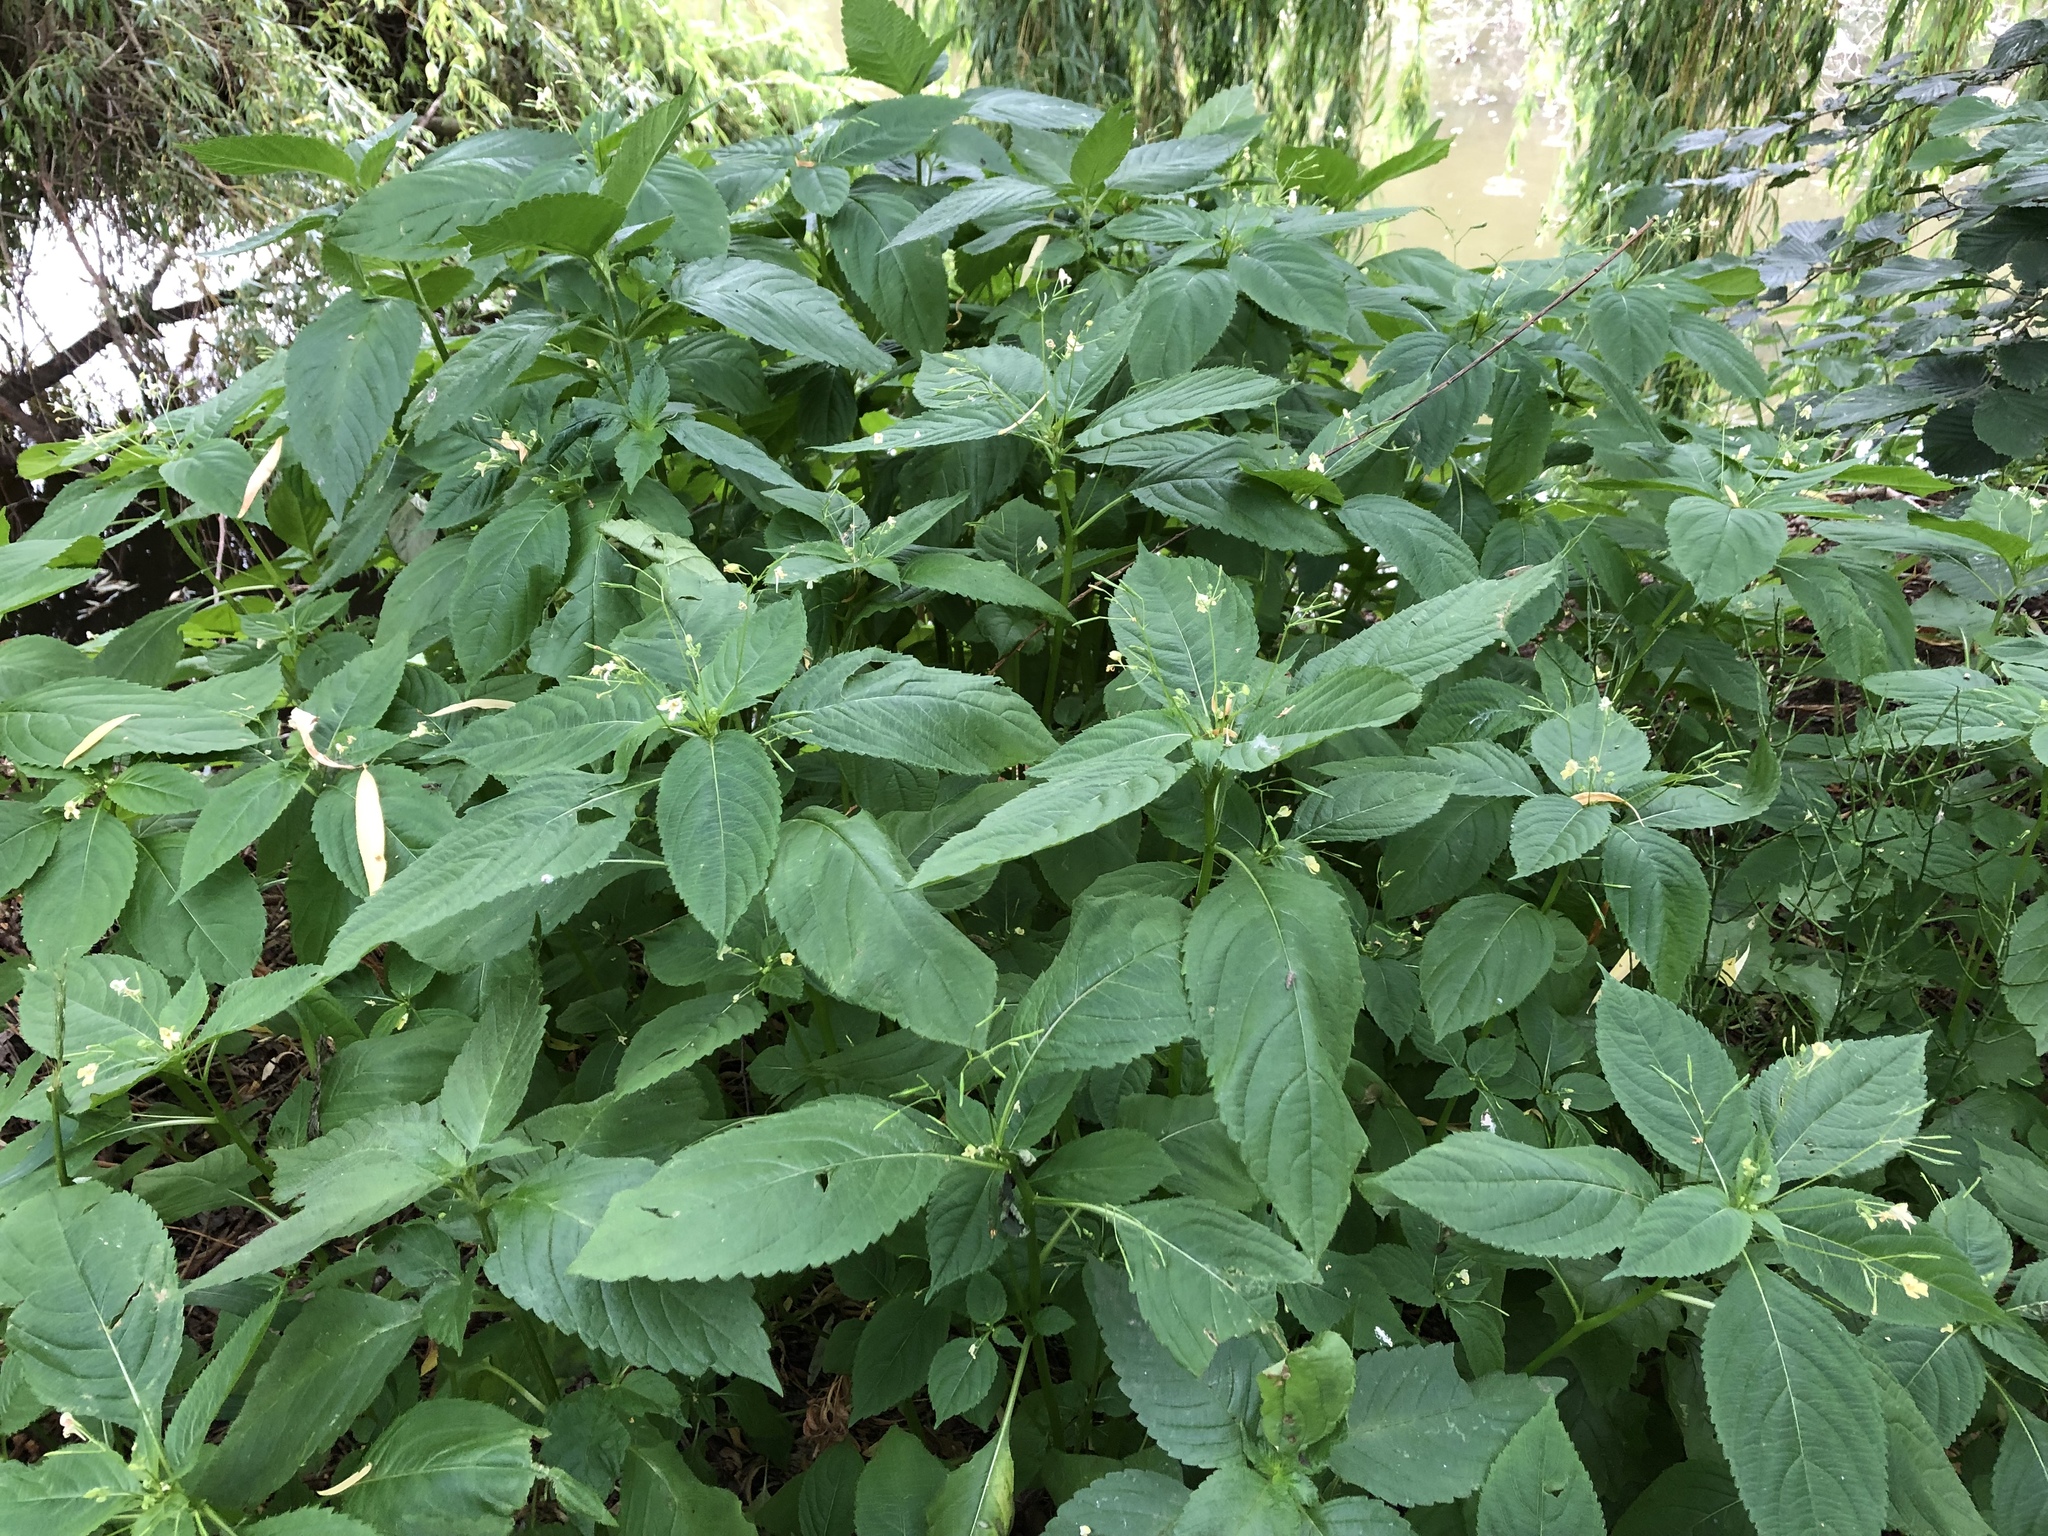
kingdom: Plantae
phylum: Tracheophyta
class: Magnoliopsida
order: Ericales
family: Balsaminaceae
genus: Impatiens
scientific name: Impatiens parviflora
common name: Small balsam
